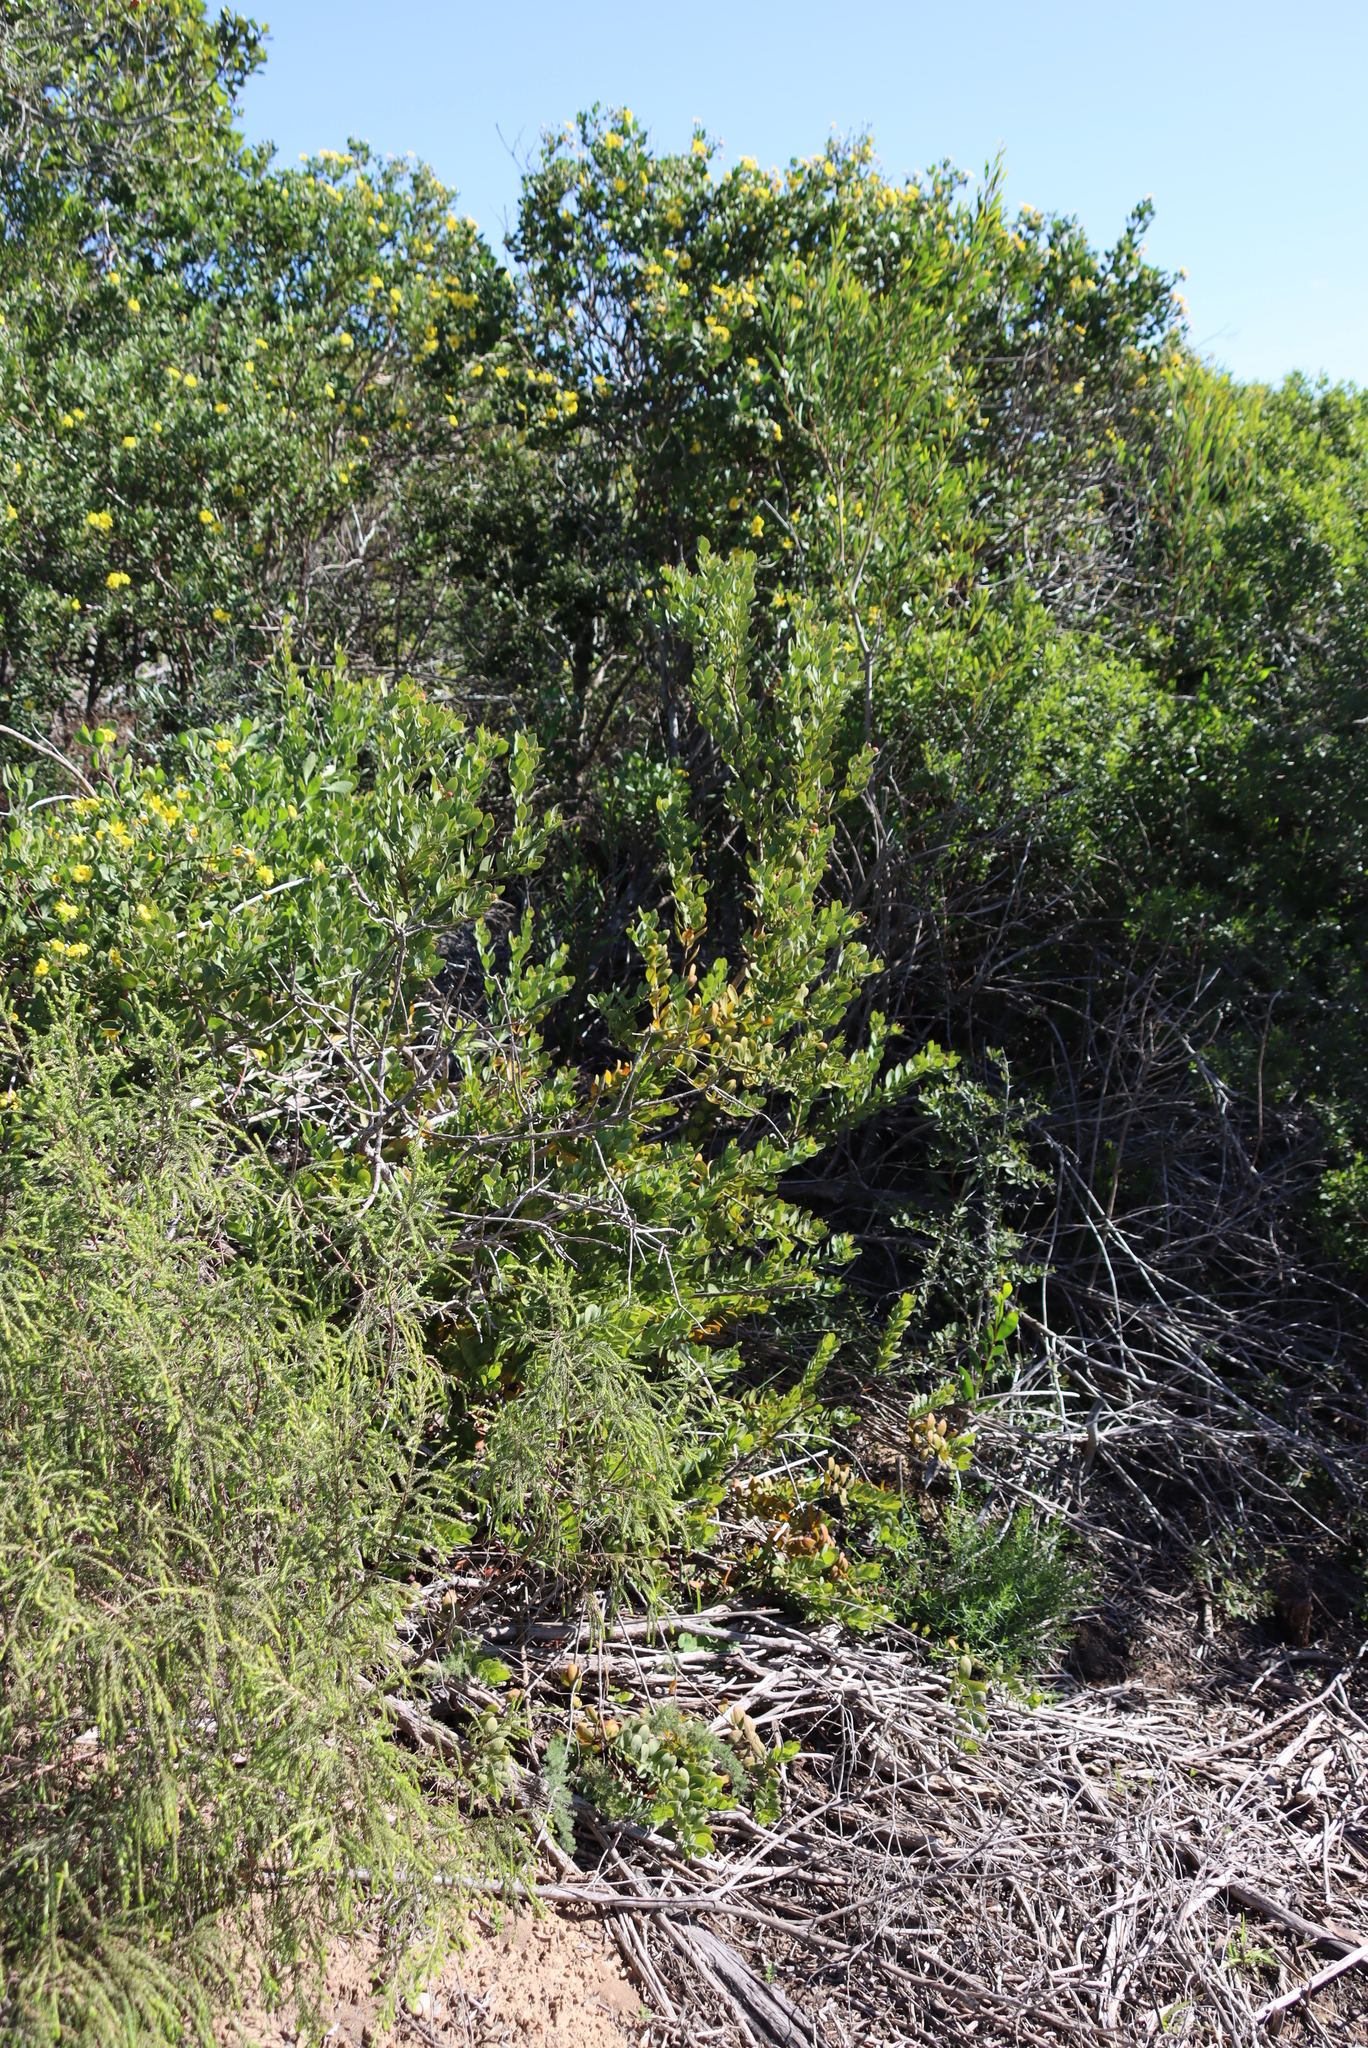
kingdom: Plantae
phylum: Tracheophyta
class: Magnoliopsida
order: Santalales
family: Santalaceae
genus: Osyris
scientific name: Osyris compressa
